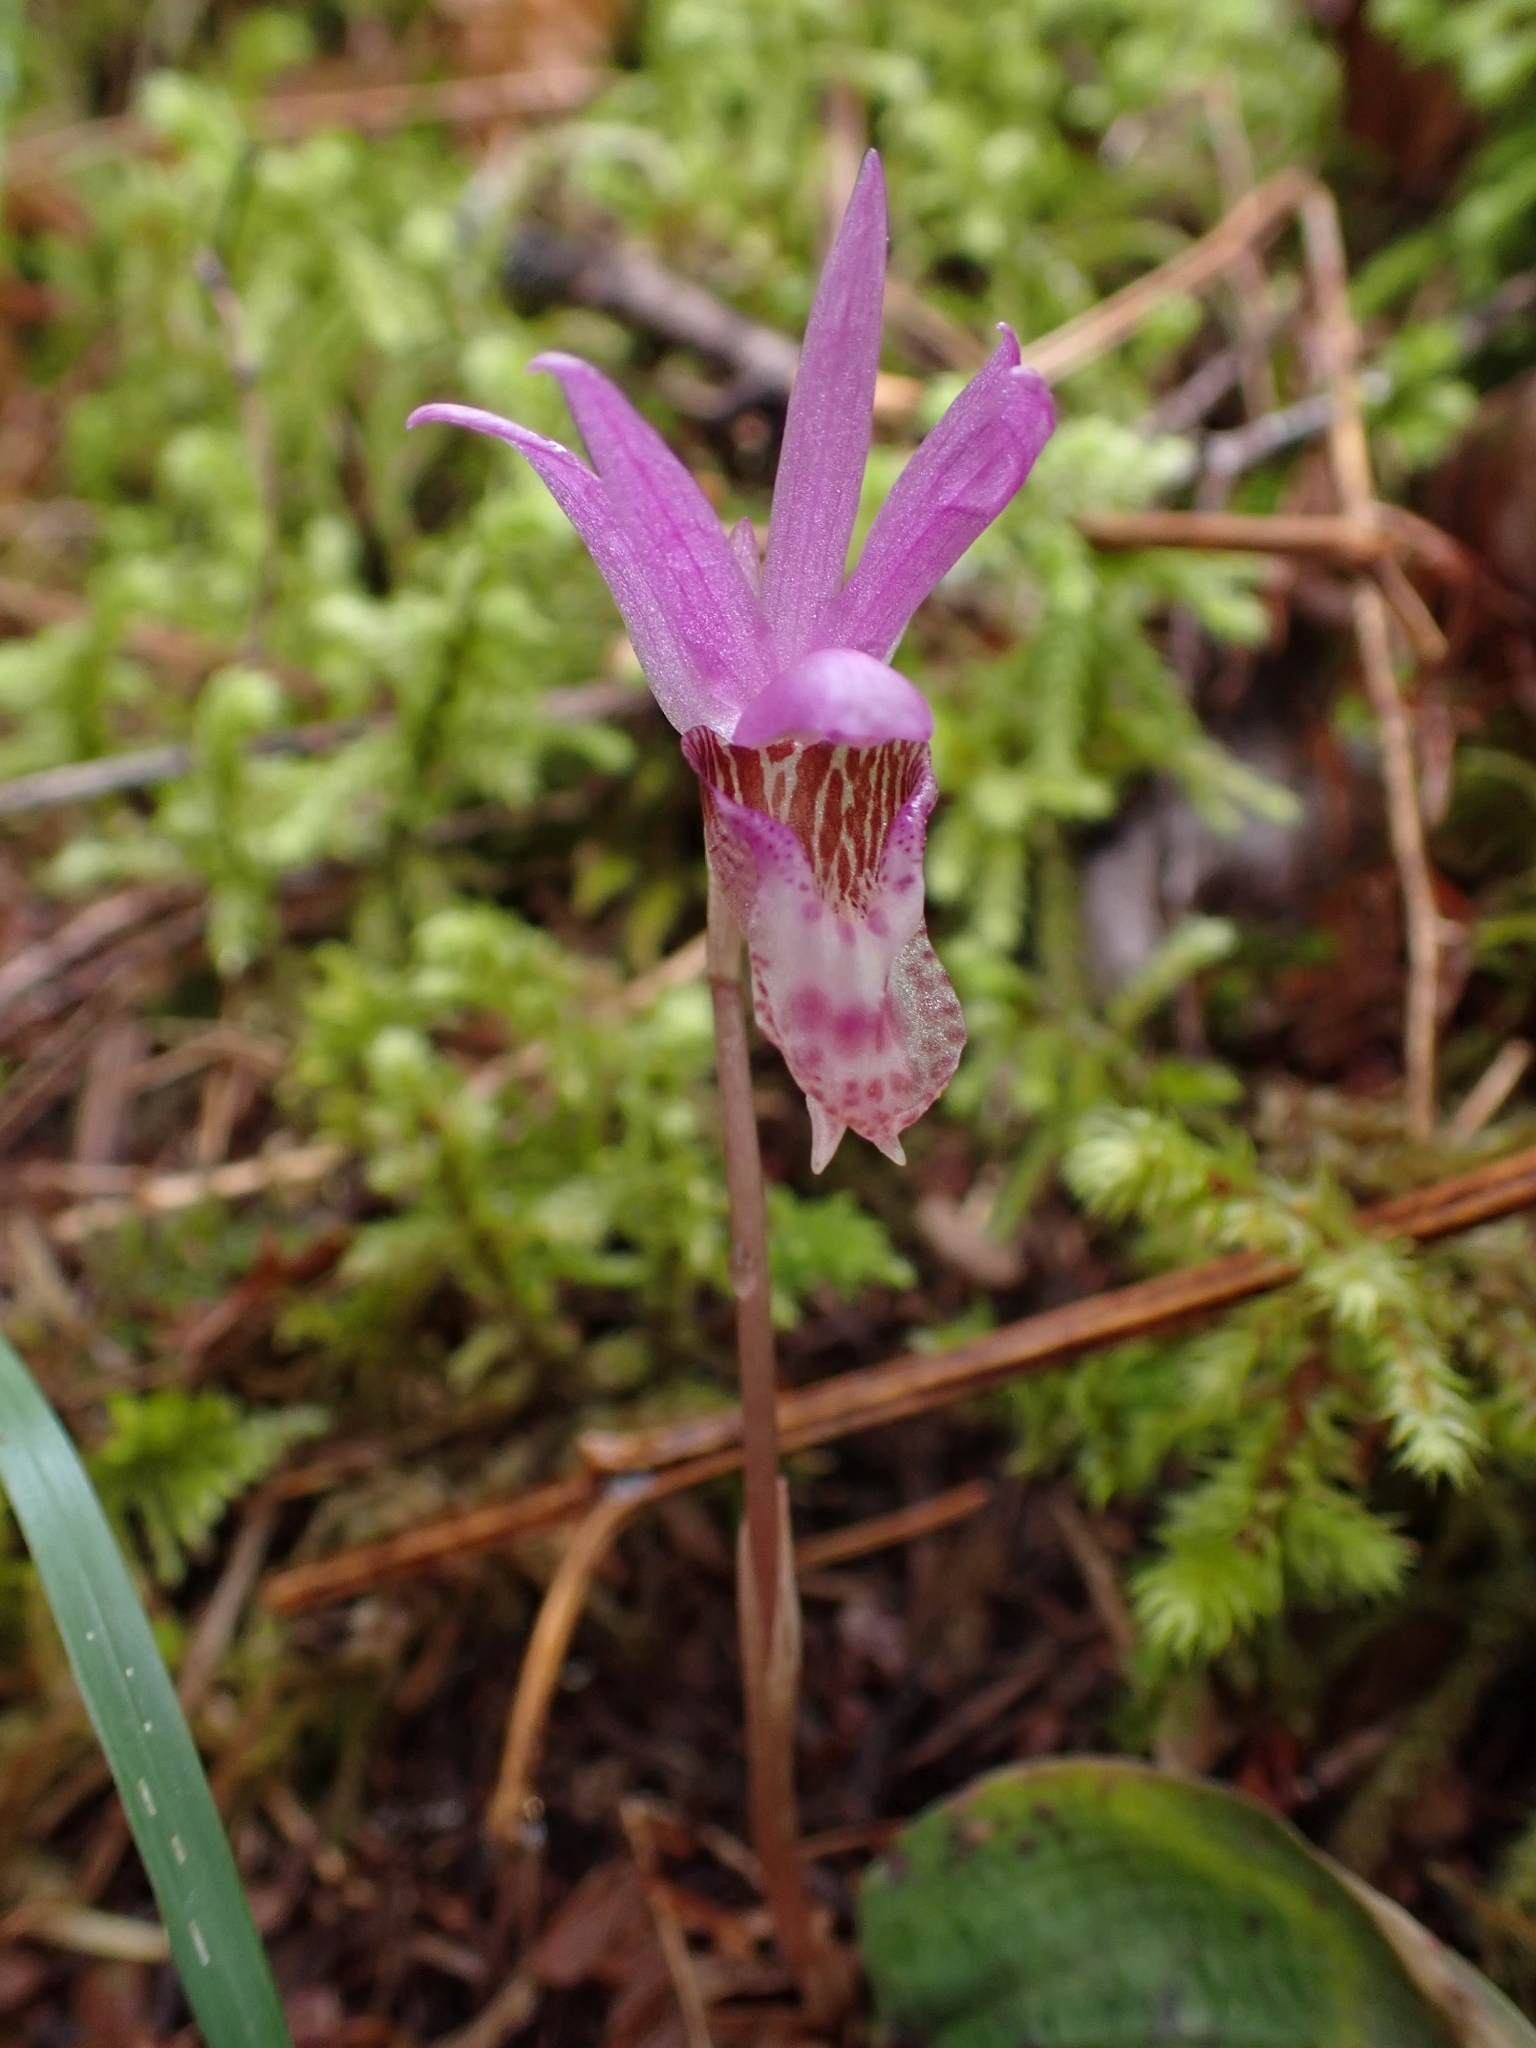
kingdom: Plantae
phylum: Tracheophyta
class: Liliopsida
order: Asparagales
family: Orchidaceae
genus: Calypso
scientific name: Calypso bulbosa
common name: Calypso
